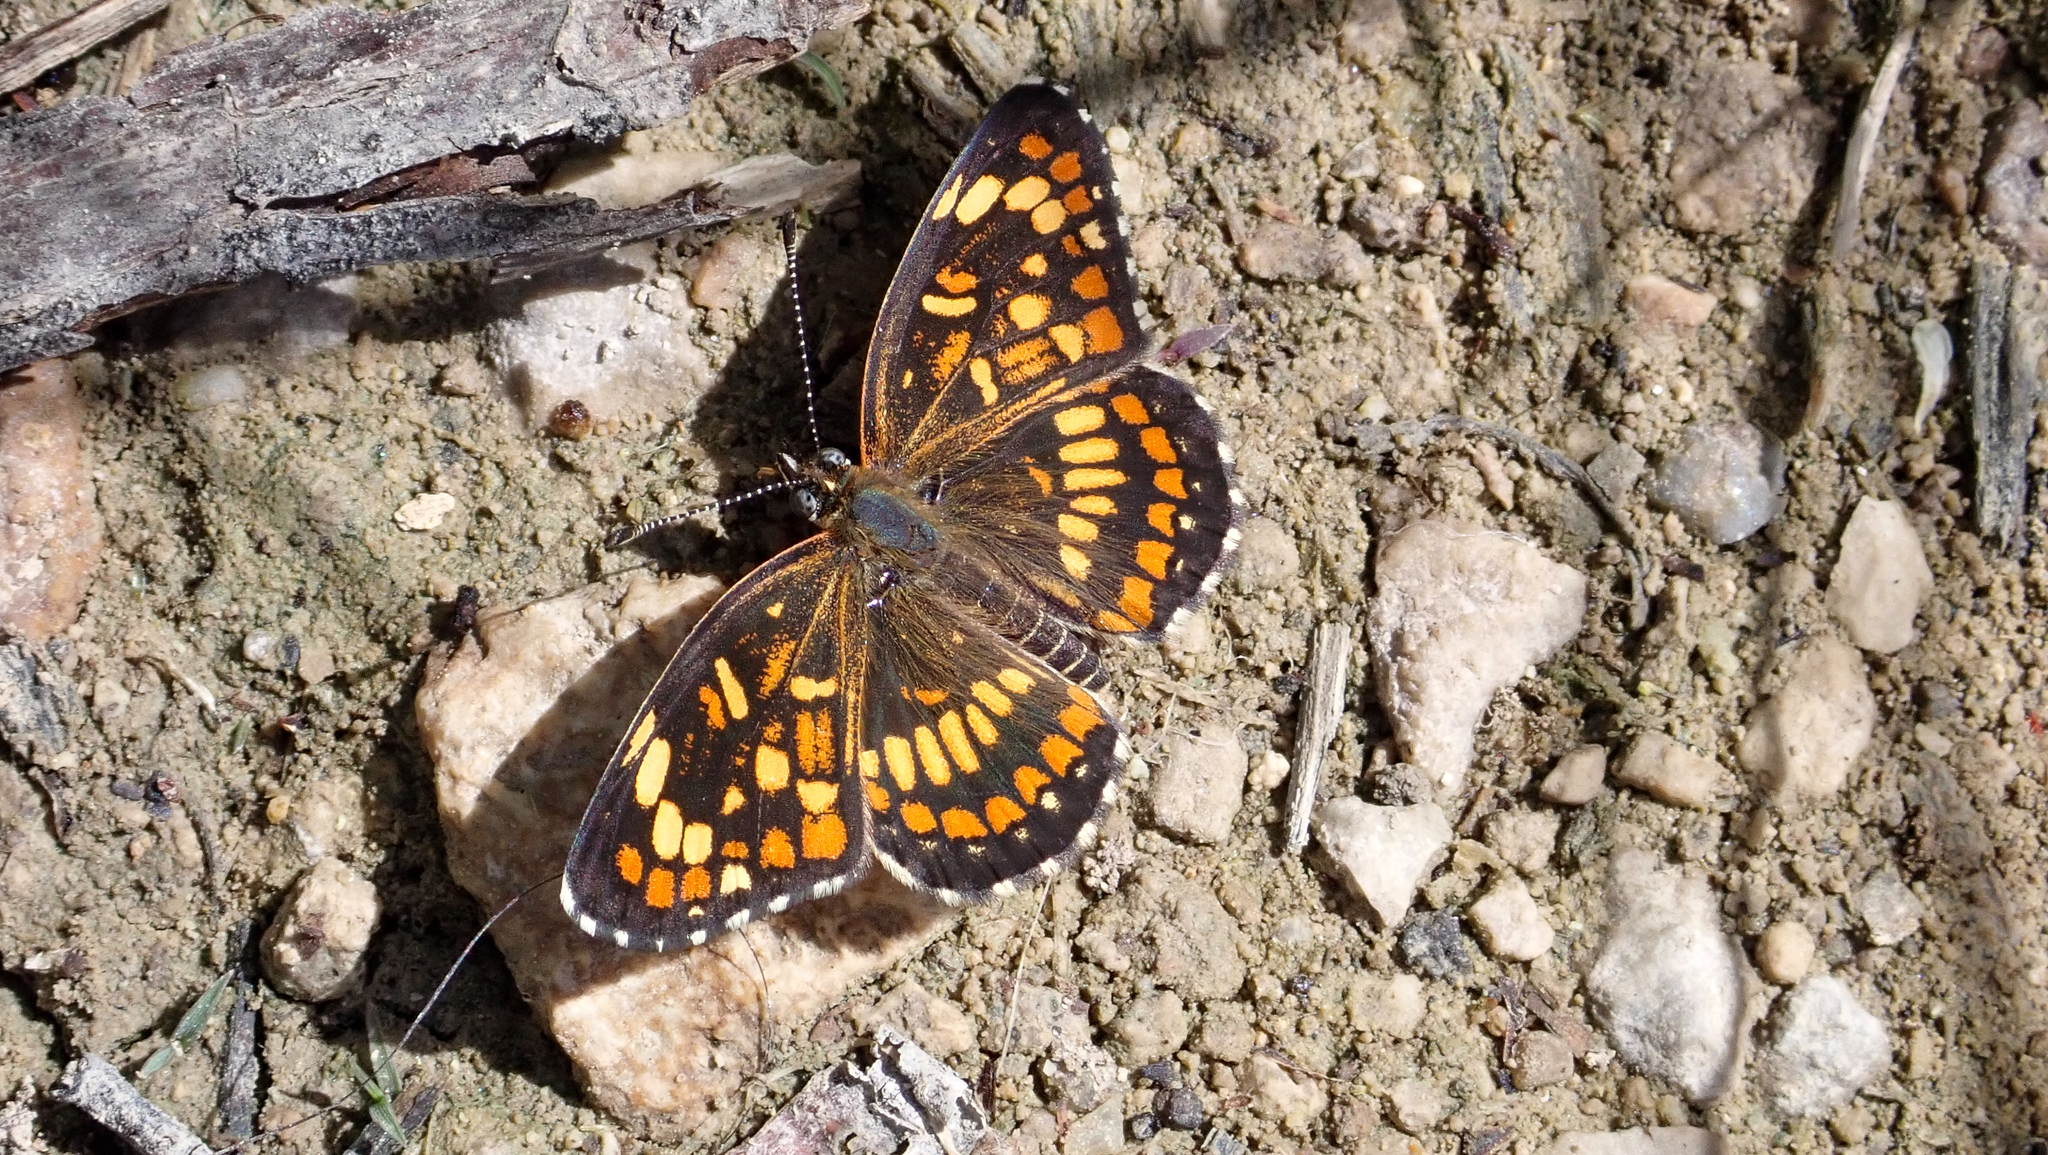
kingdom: Animalia
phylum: Arthropoda
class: Insecta
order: Lepidoptera
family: Nymphalidae
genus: Thessalia
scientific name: Thessalia theona
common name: Nymphalid moth
